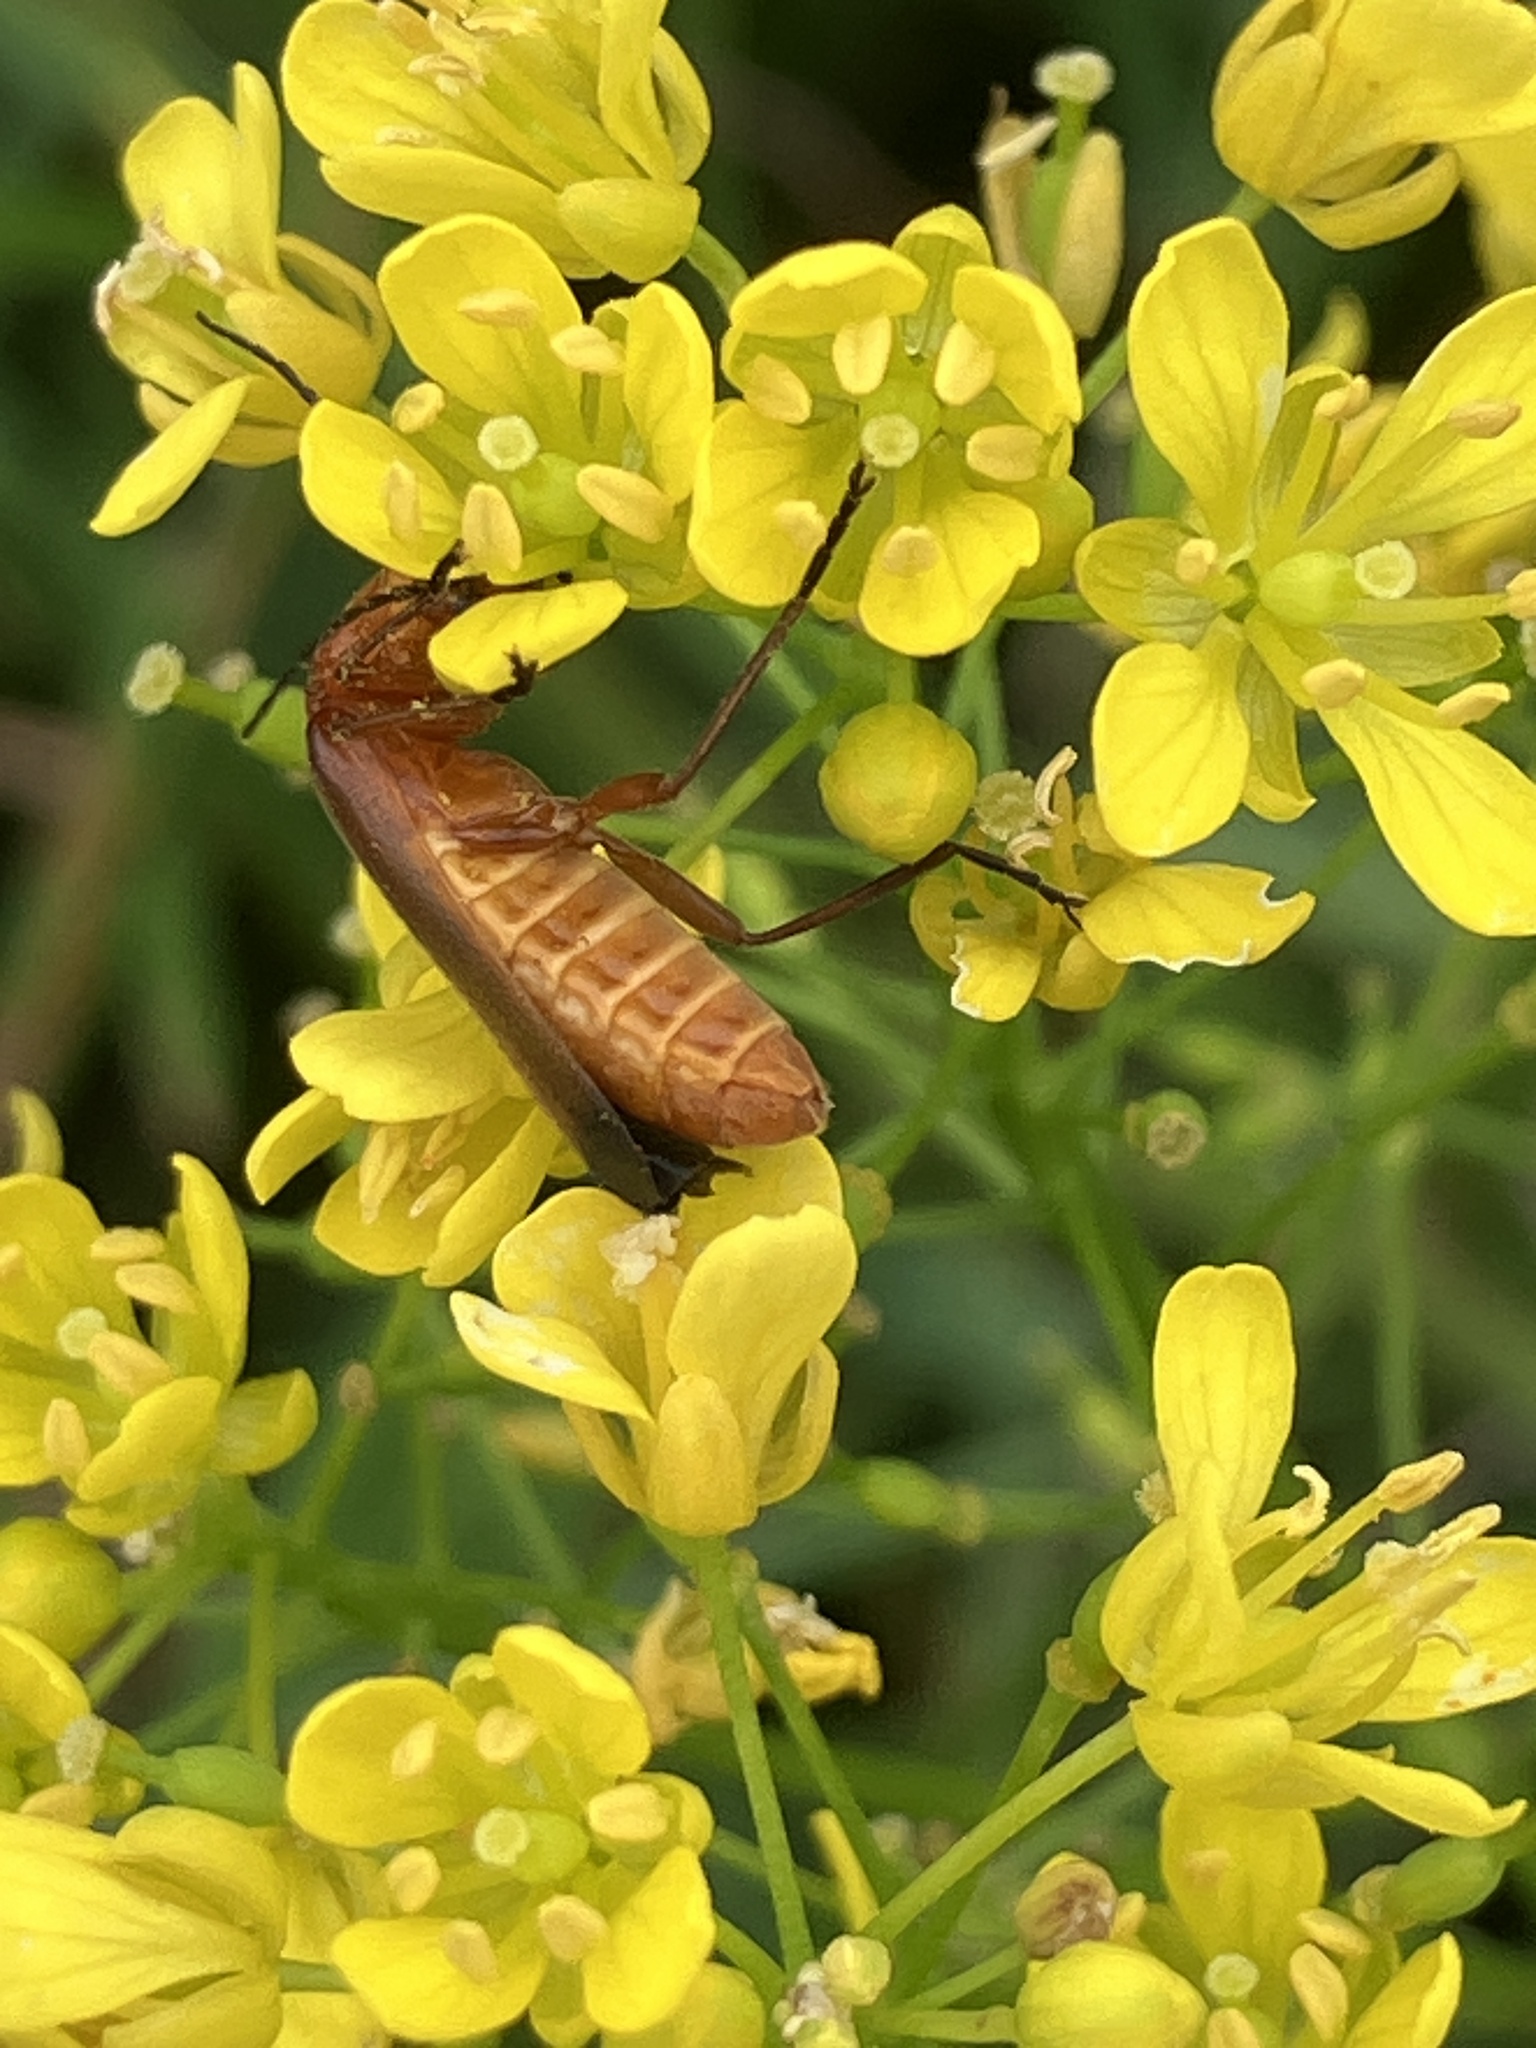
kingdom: Animalia
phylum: Arthropoda
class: Insecta
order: Coleoptera
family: Cantharidae
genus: Rhagonycha
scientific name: Rhagonycha fulva
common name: Common red soldier beetle
